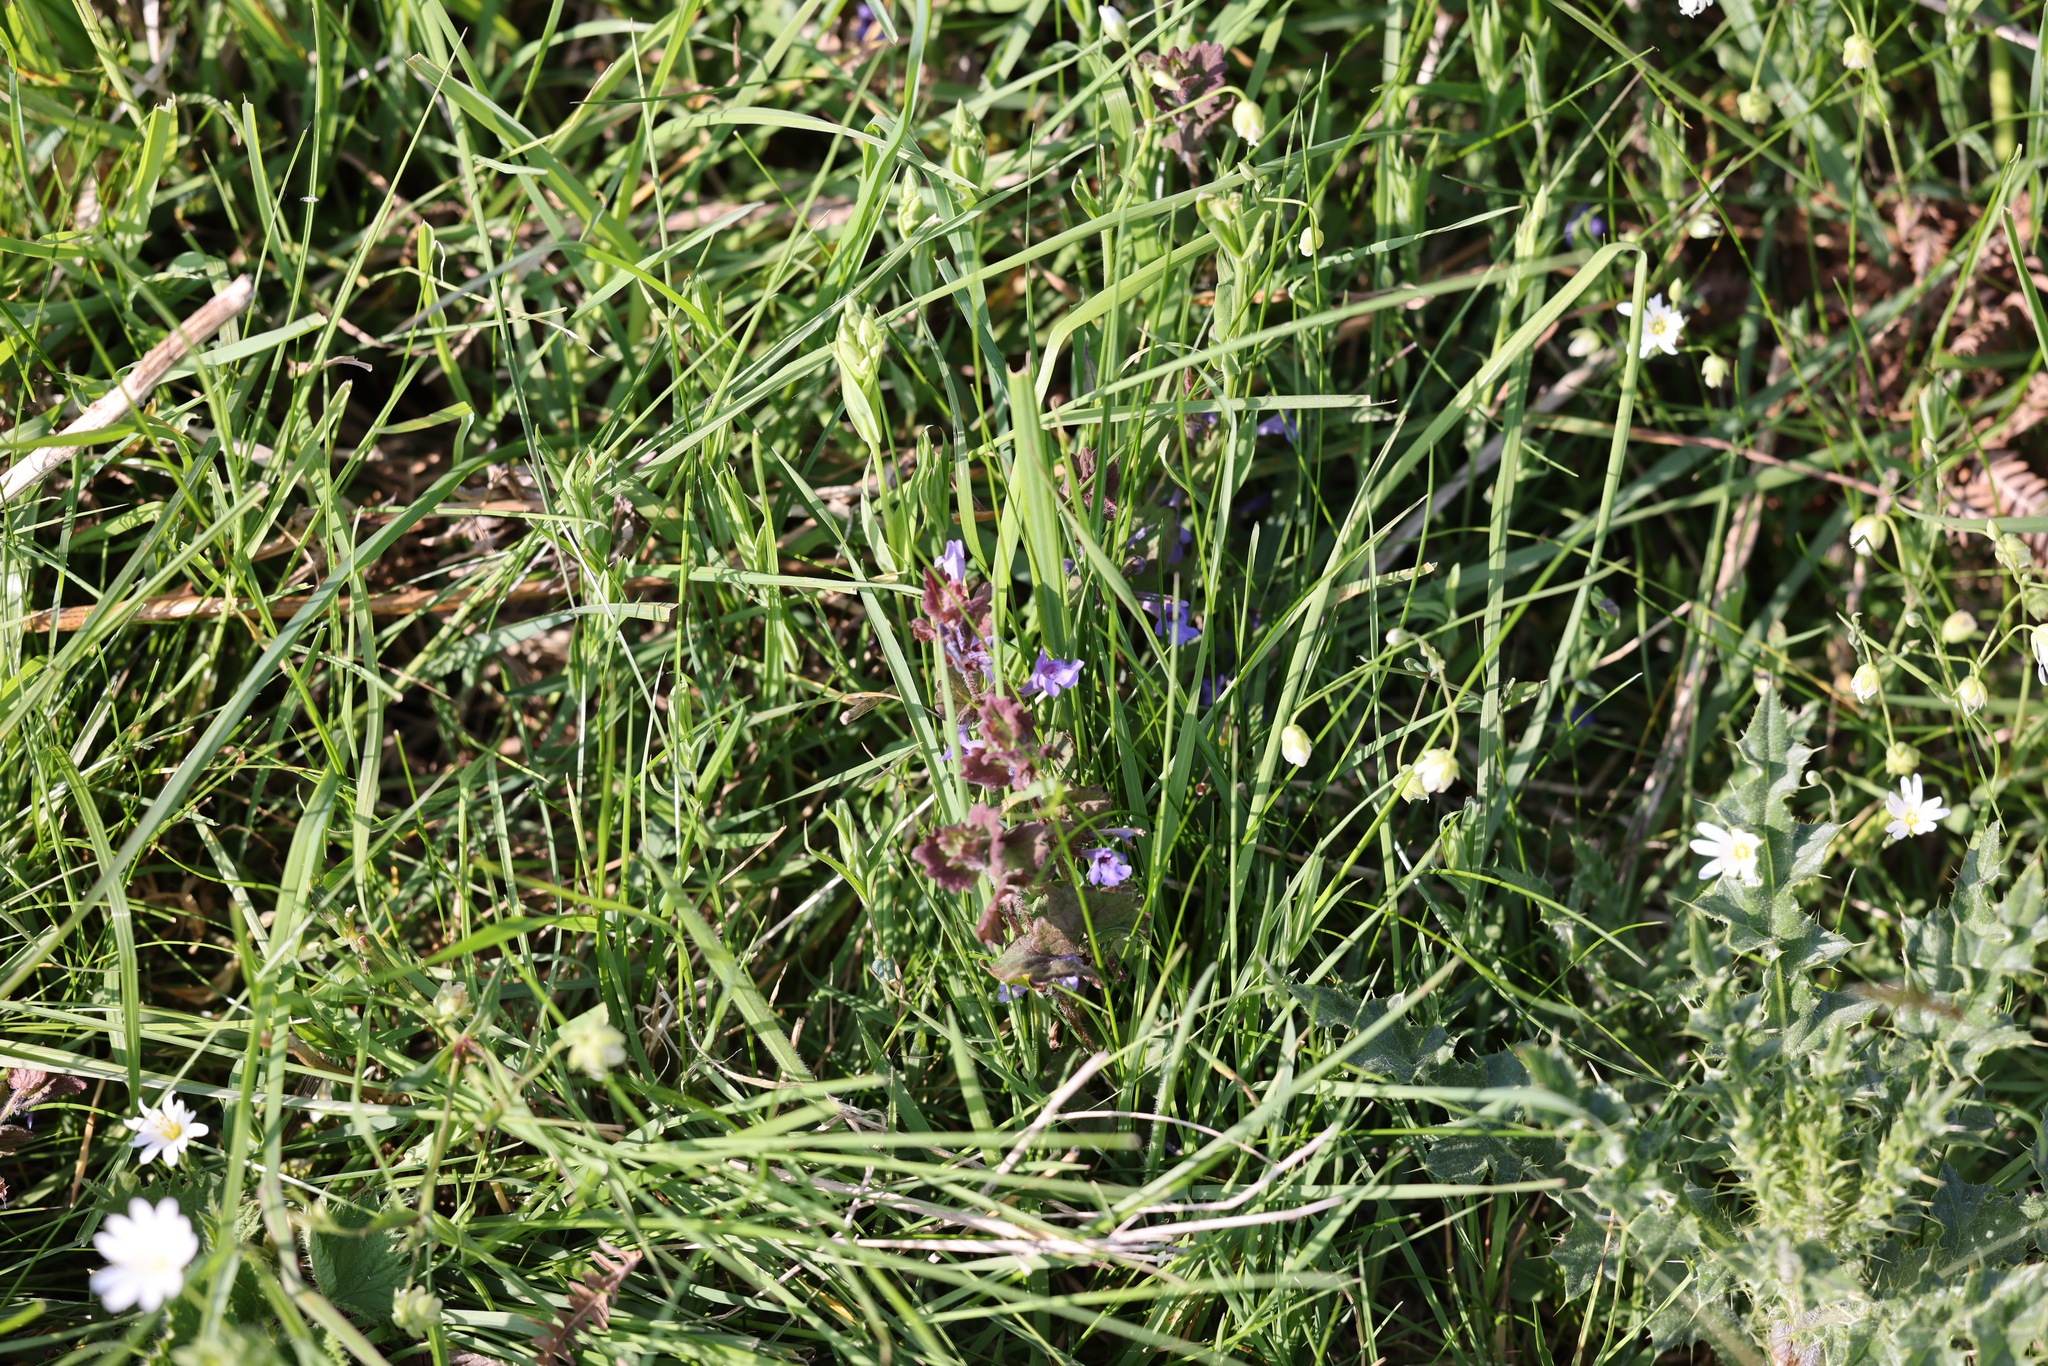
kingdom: Plantae
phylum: Tracheophyta
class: Magnoliopsida
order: Lamiales
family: Lamiaceae
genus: Glechoma
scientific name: Glechoma hederacea
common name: Ground ivy
